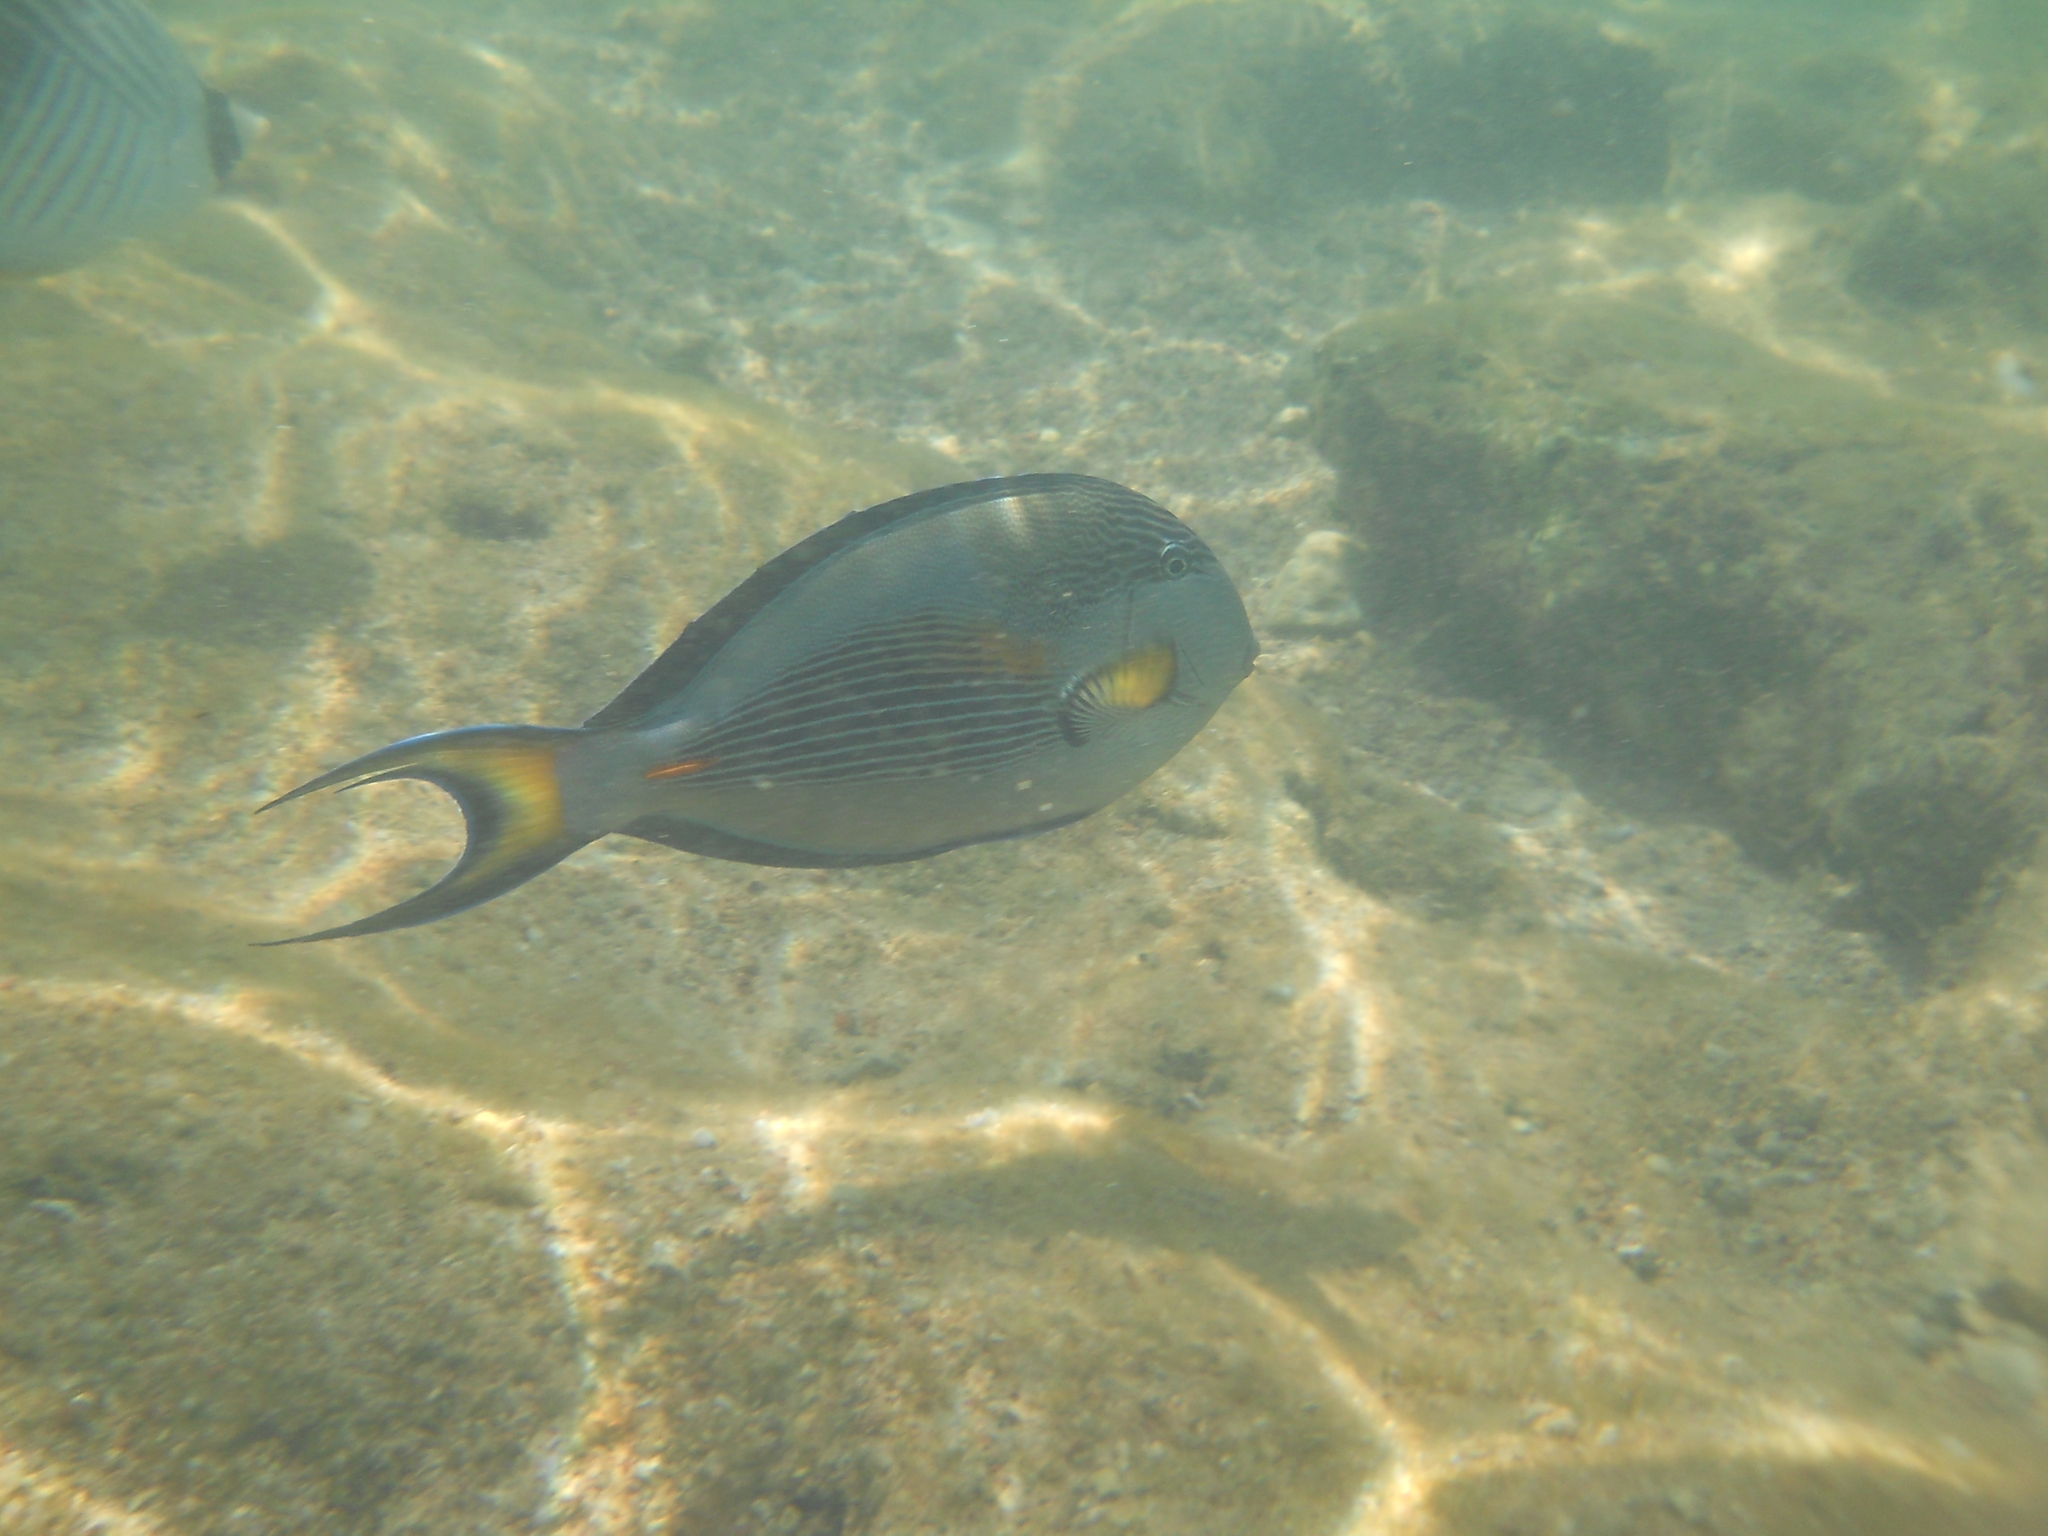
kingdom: Animalia
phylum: Chordata
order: Perciformes
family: Acanthuridae
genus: Acanthurus
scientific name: Acanthurus sohal
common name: Red sea surgeonfish
